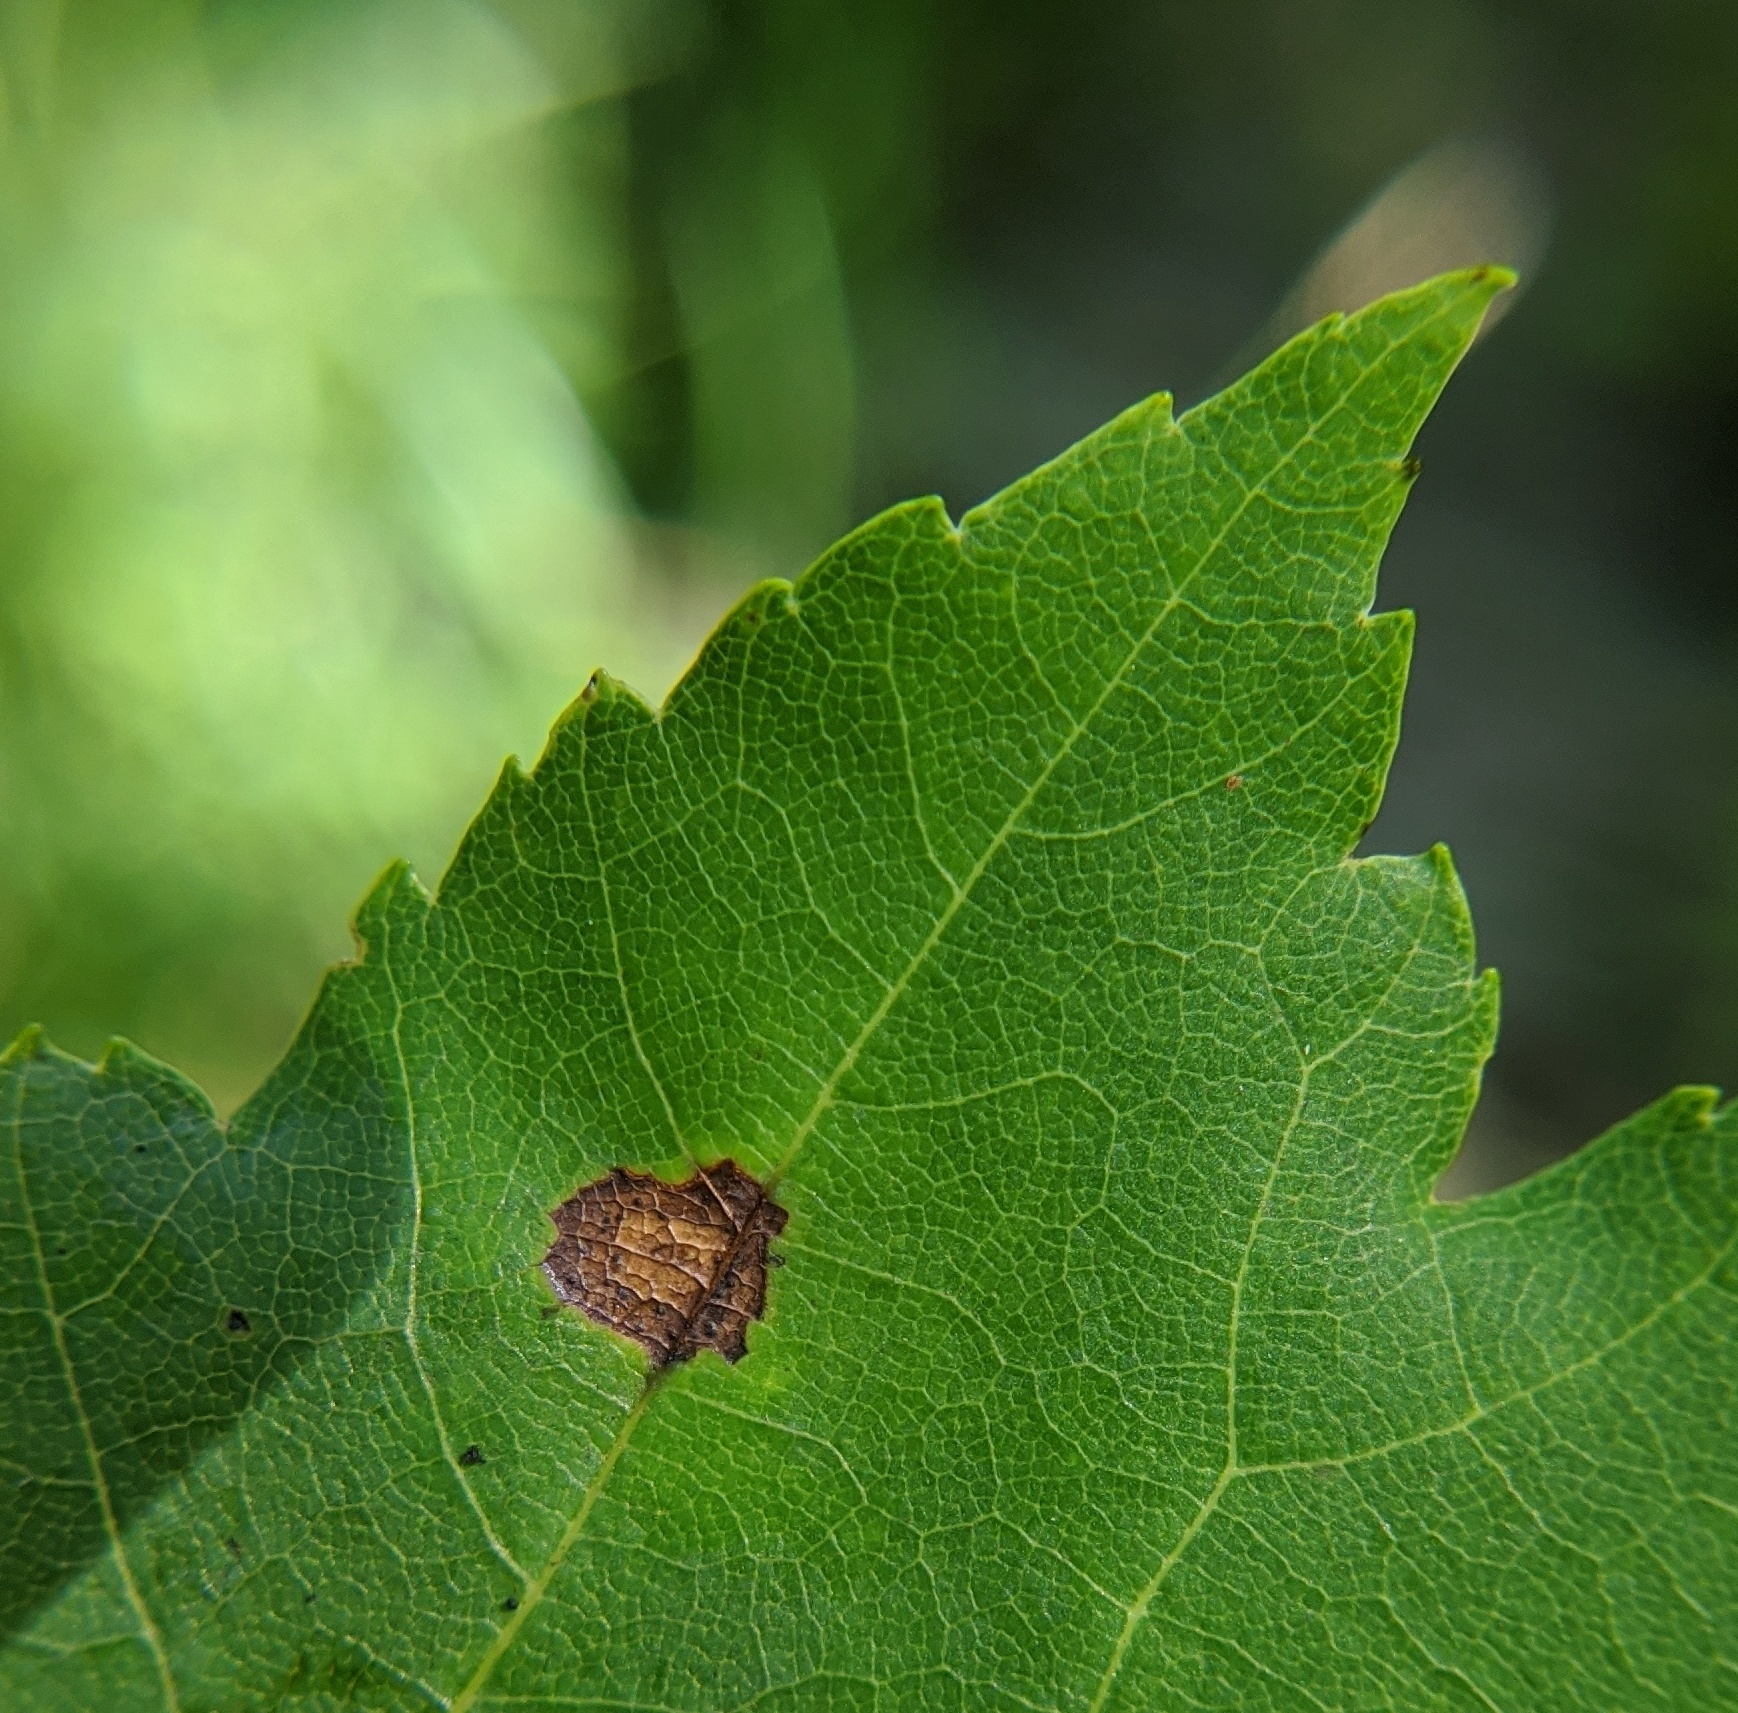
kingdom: Animalia
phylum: Arthropoda
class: Insecta
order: Diptera
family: Cecidomyiidae
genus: Acericecis
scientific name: Acericecis ocellaris
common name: Ocellate gall midge
